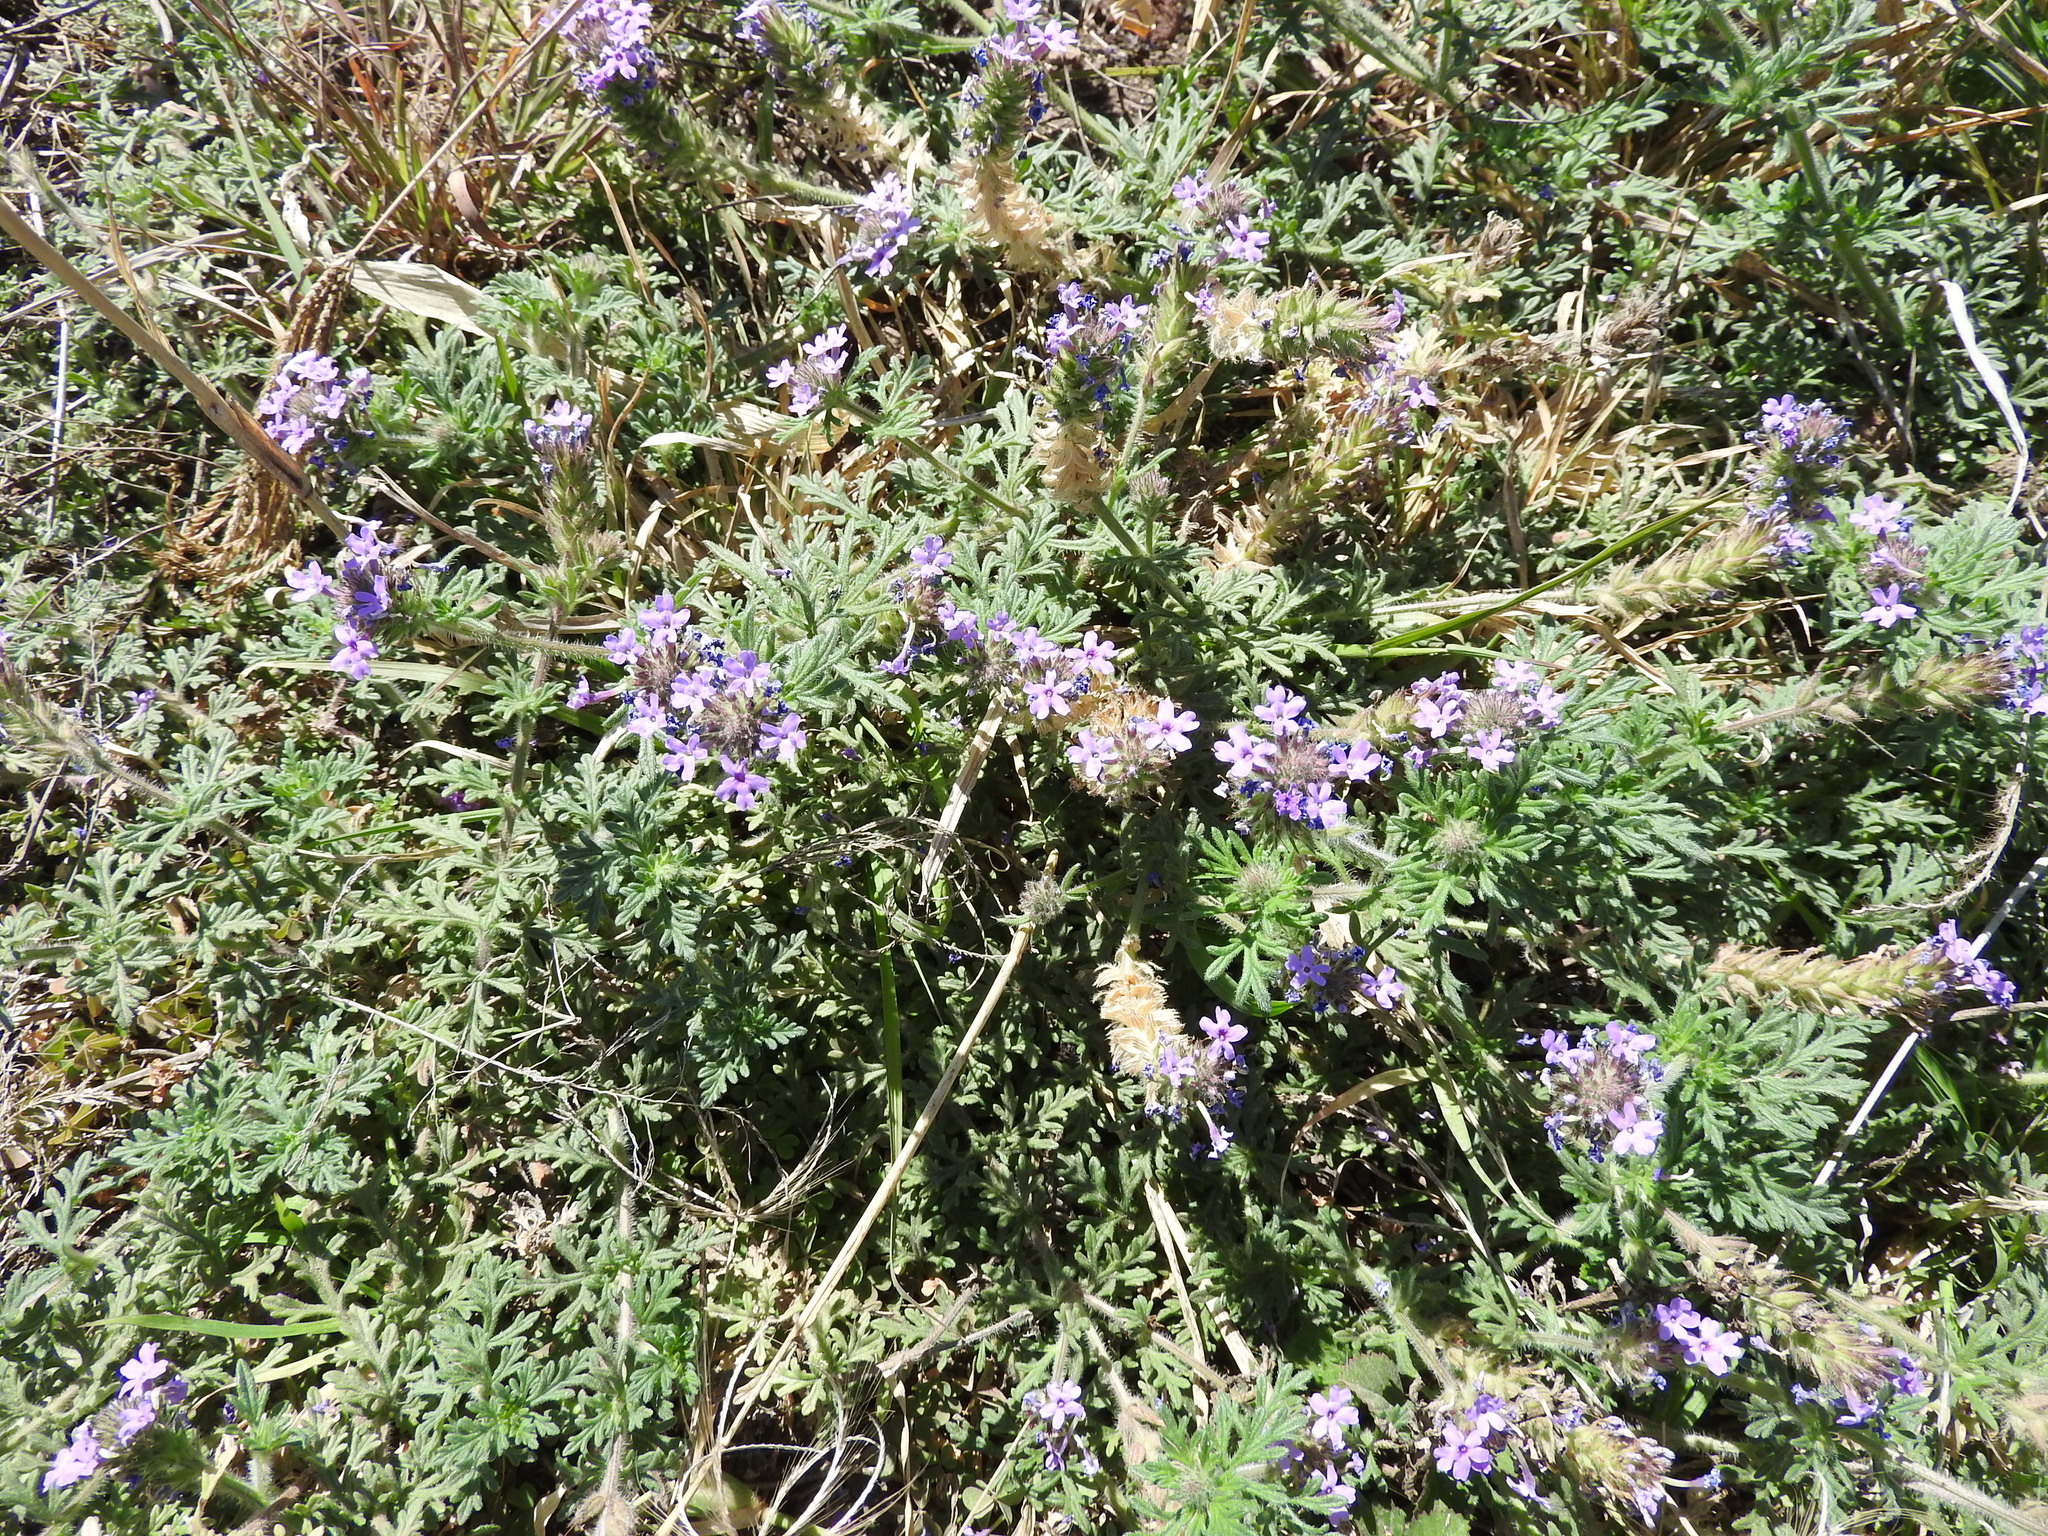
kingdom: Plantae
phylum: Tracheophyta
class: Magnoliopsida
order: Lamiales
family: Verbenaceae
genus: Verbena
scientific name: Verbena bipinnatifida
